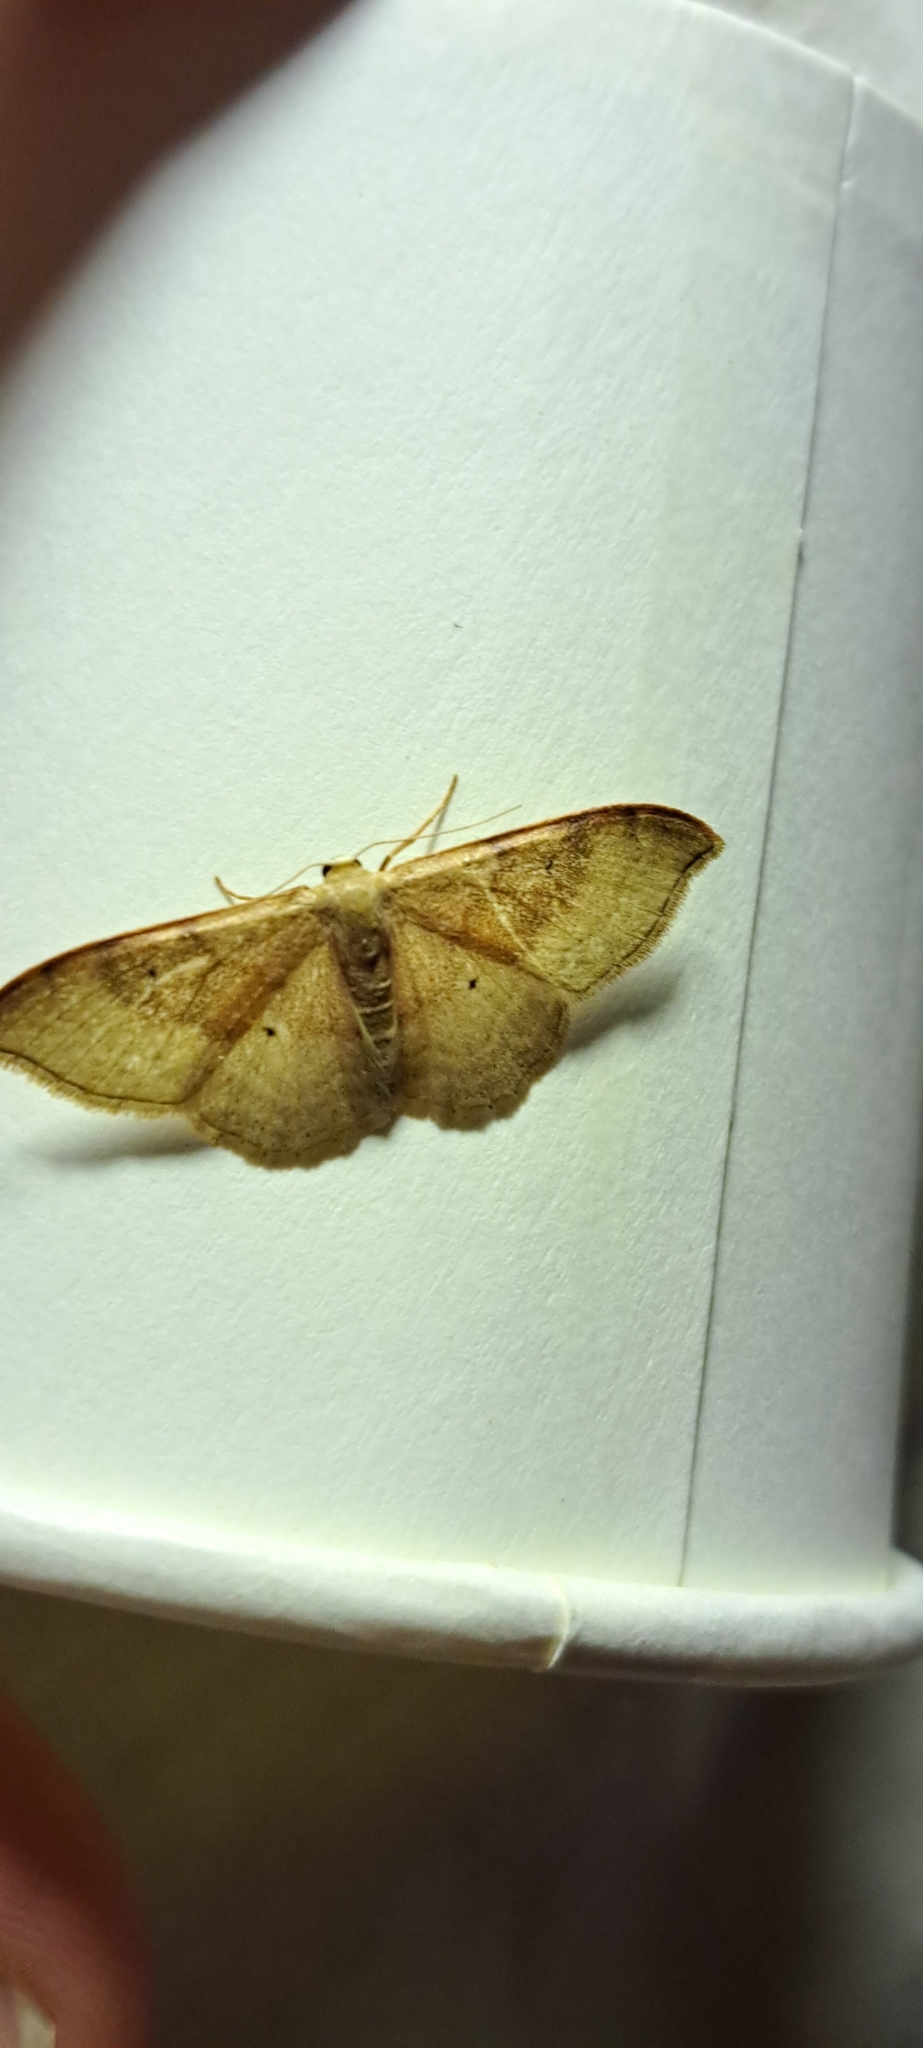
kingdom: Animalia
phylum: Arthropoda
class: Insecta
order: Lepidoptera
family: Geometridae
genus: Idaea
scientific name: Idaea degeneraria
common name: Portland ribbon wave
